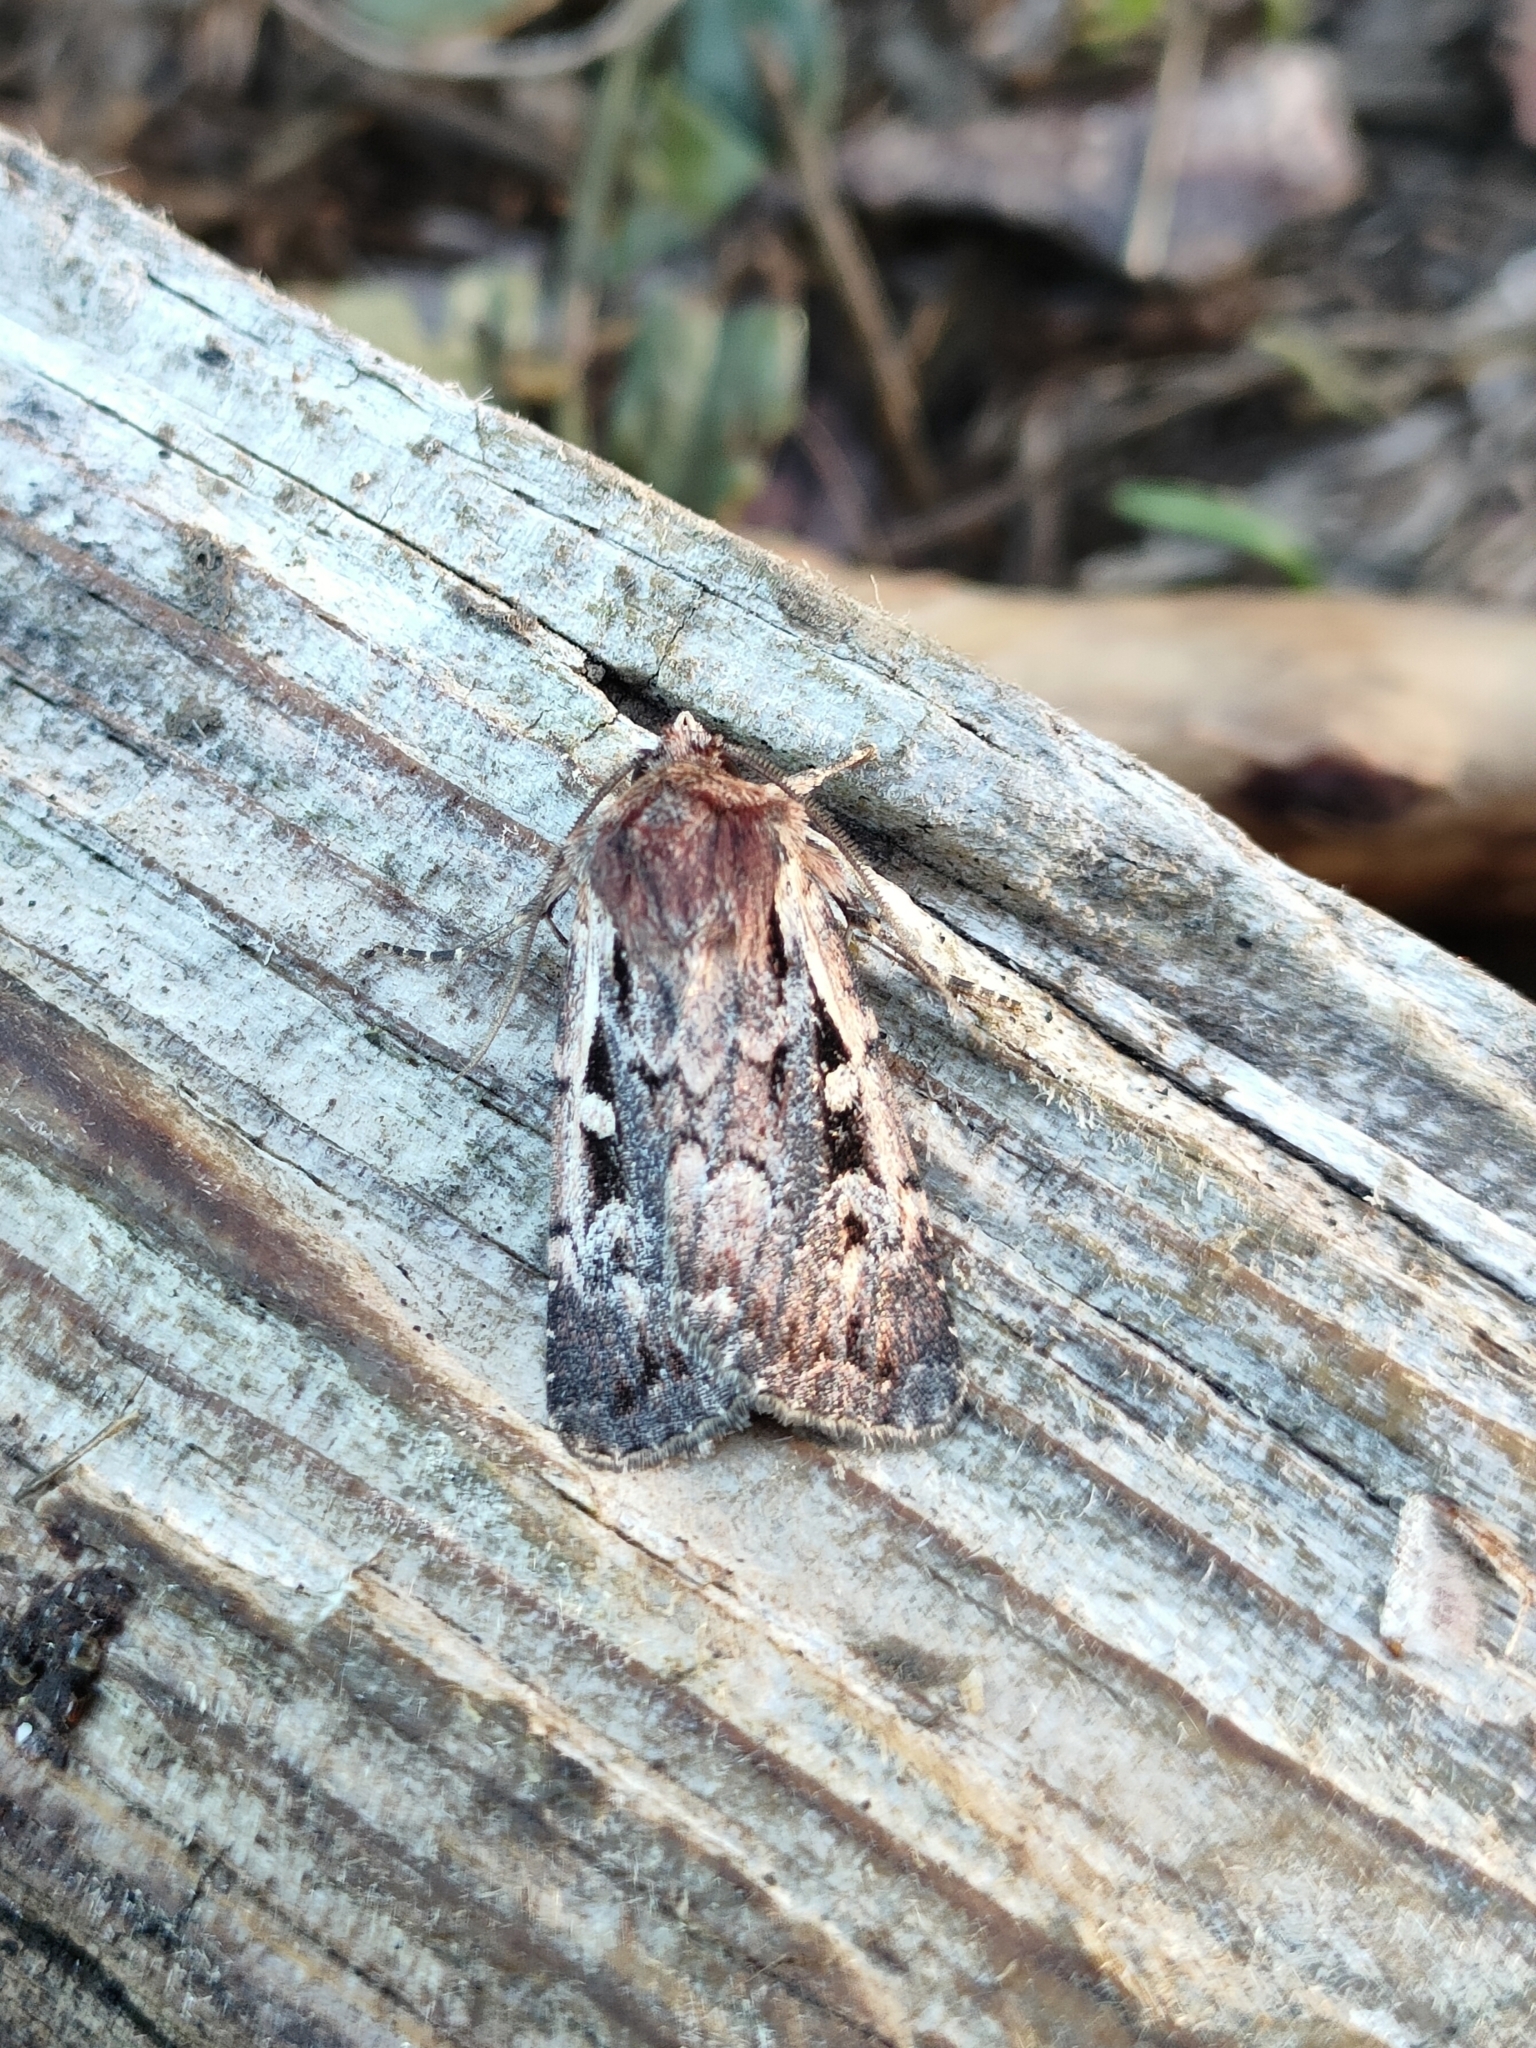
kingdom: Animalia
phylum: Arthropoda
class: Insecta
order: Lepidoptera
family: Noctuidae
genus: Xestia
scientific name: Xestia agathina
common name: Heath rustic
